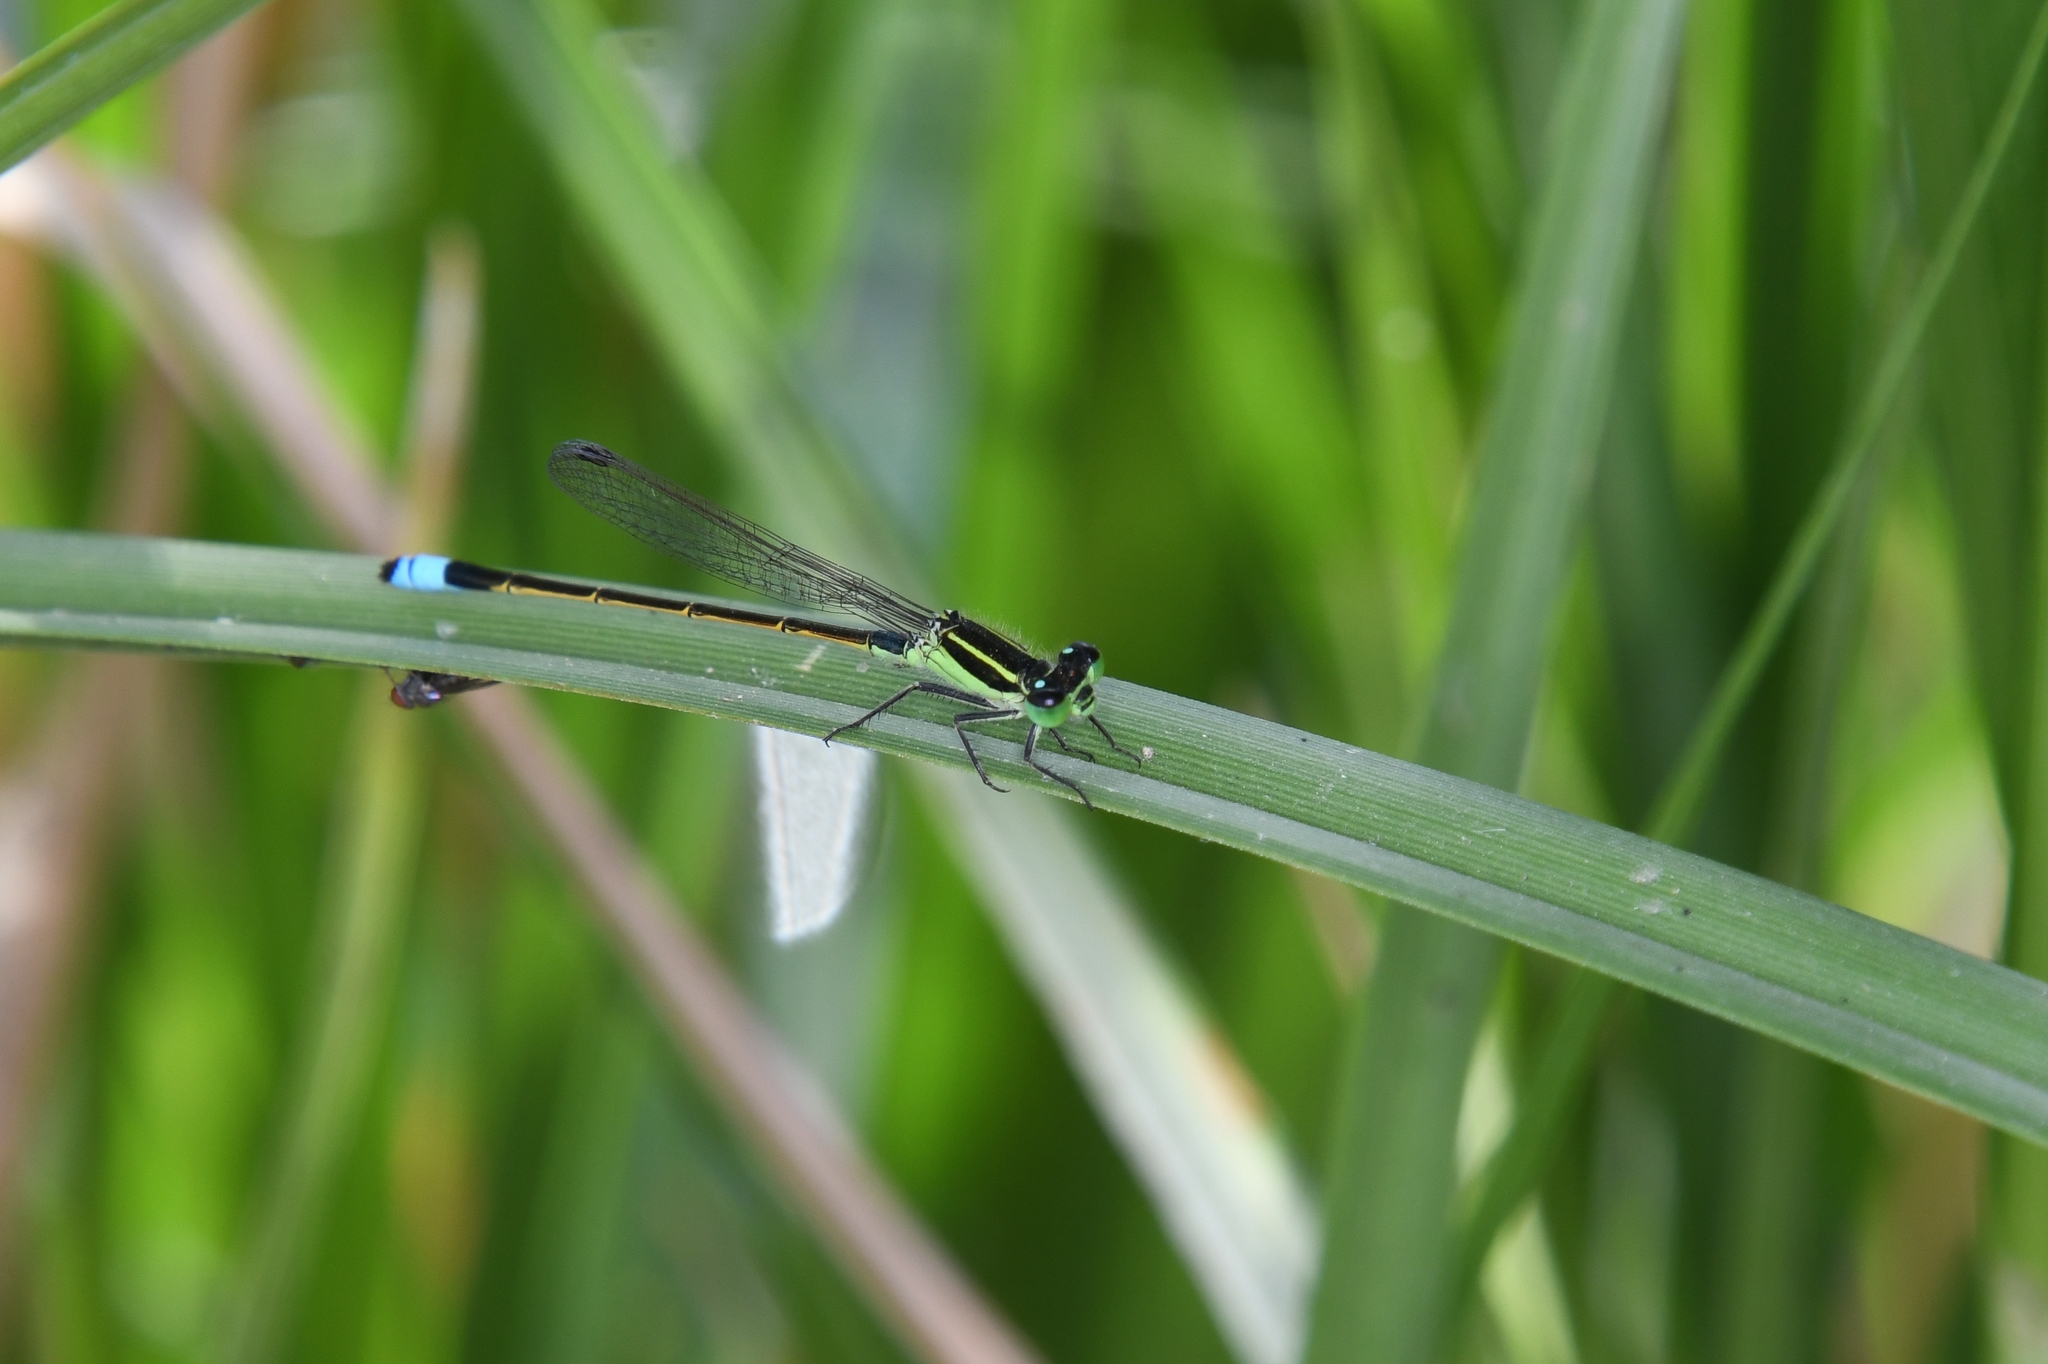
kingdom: Animalia
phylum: Arthropoda
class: Insecta
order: Odonata
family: Coenagrionidae
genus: Ischnura
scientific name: Ischnura ramburii
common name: Rambur's forktail
